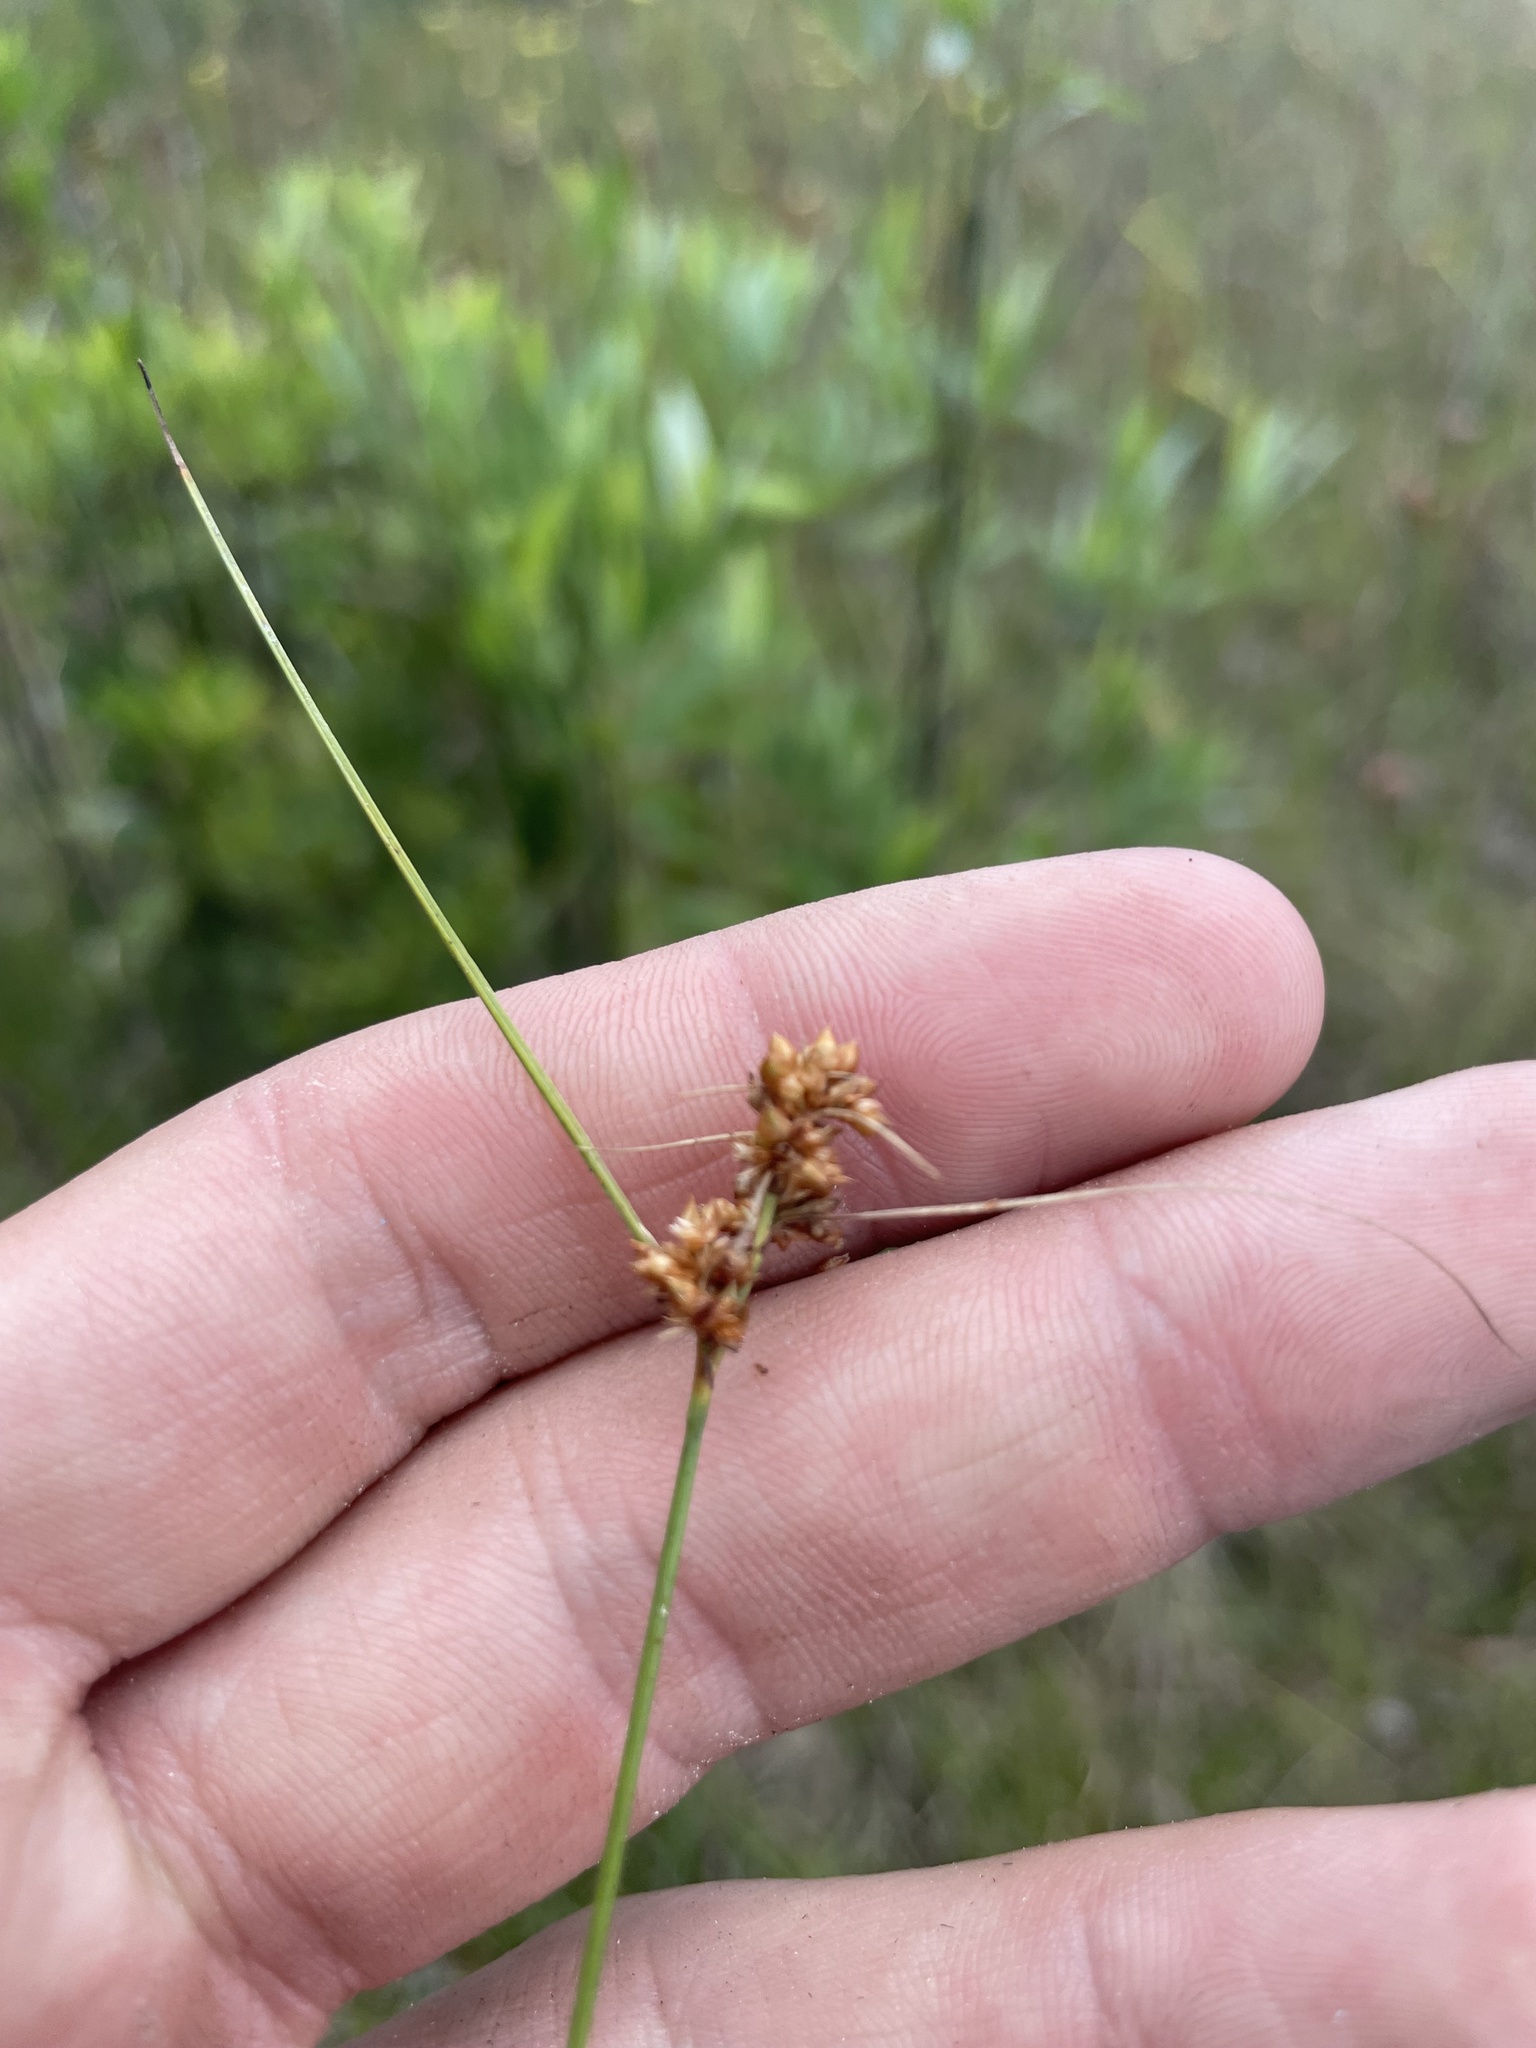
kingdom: Plantae
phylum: Tracheophyta
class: Liliopsida
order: Poales
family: Cyperaceae
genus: Rhynchospora
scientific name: Rhynchospora marliniana
